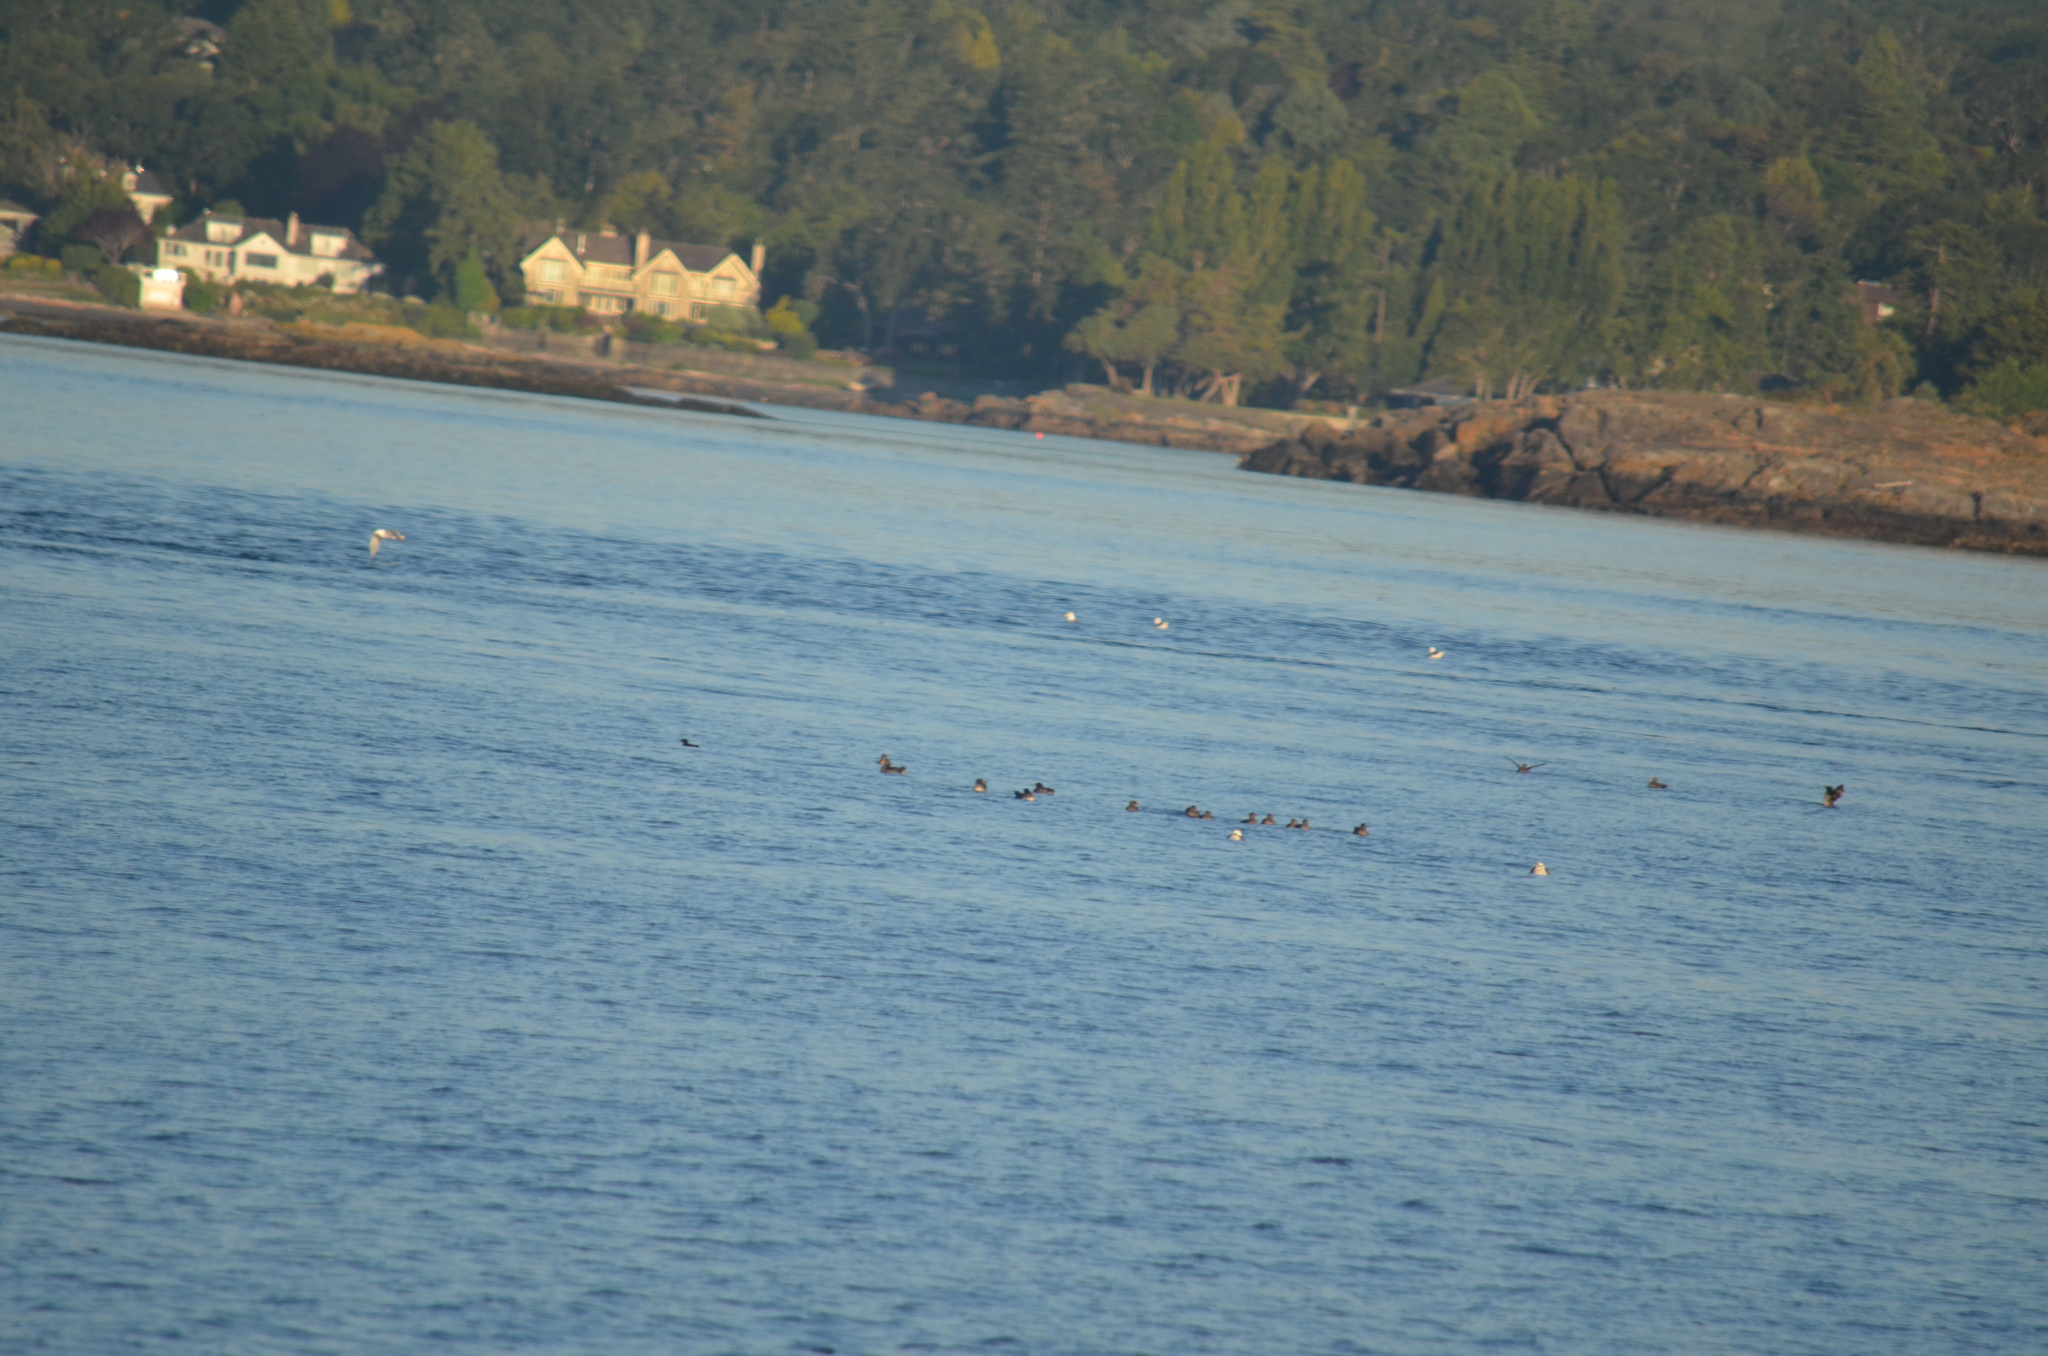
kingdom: Animalia
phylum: Chordata
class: Aves
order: Charadriiformes
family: Laridae
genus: Larus
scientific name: Larus glaucescens
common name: Glaucous-winged gull
